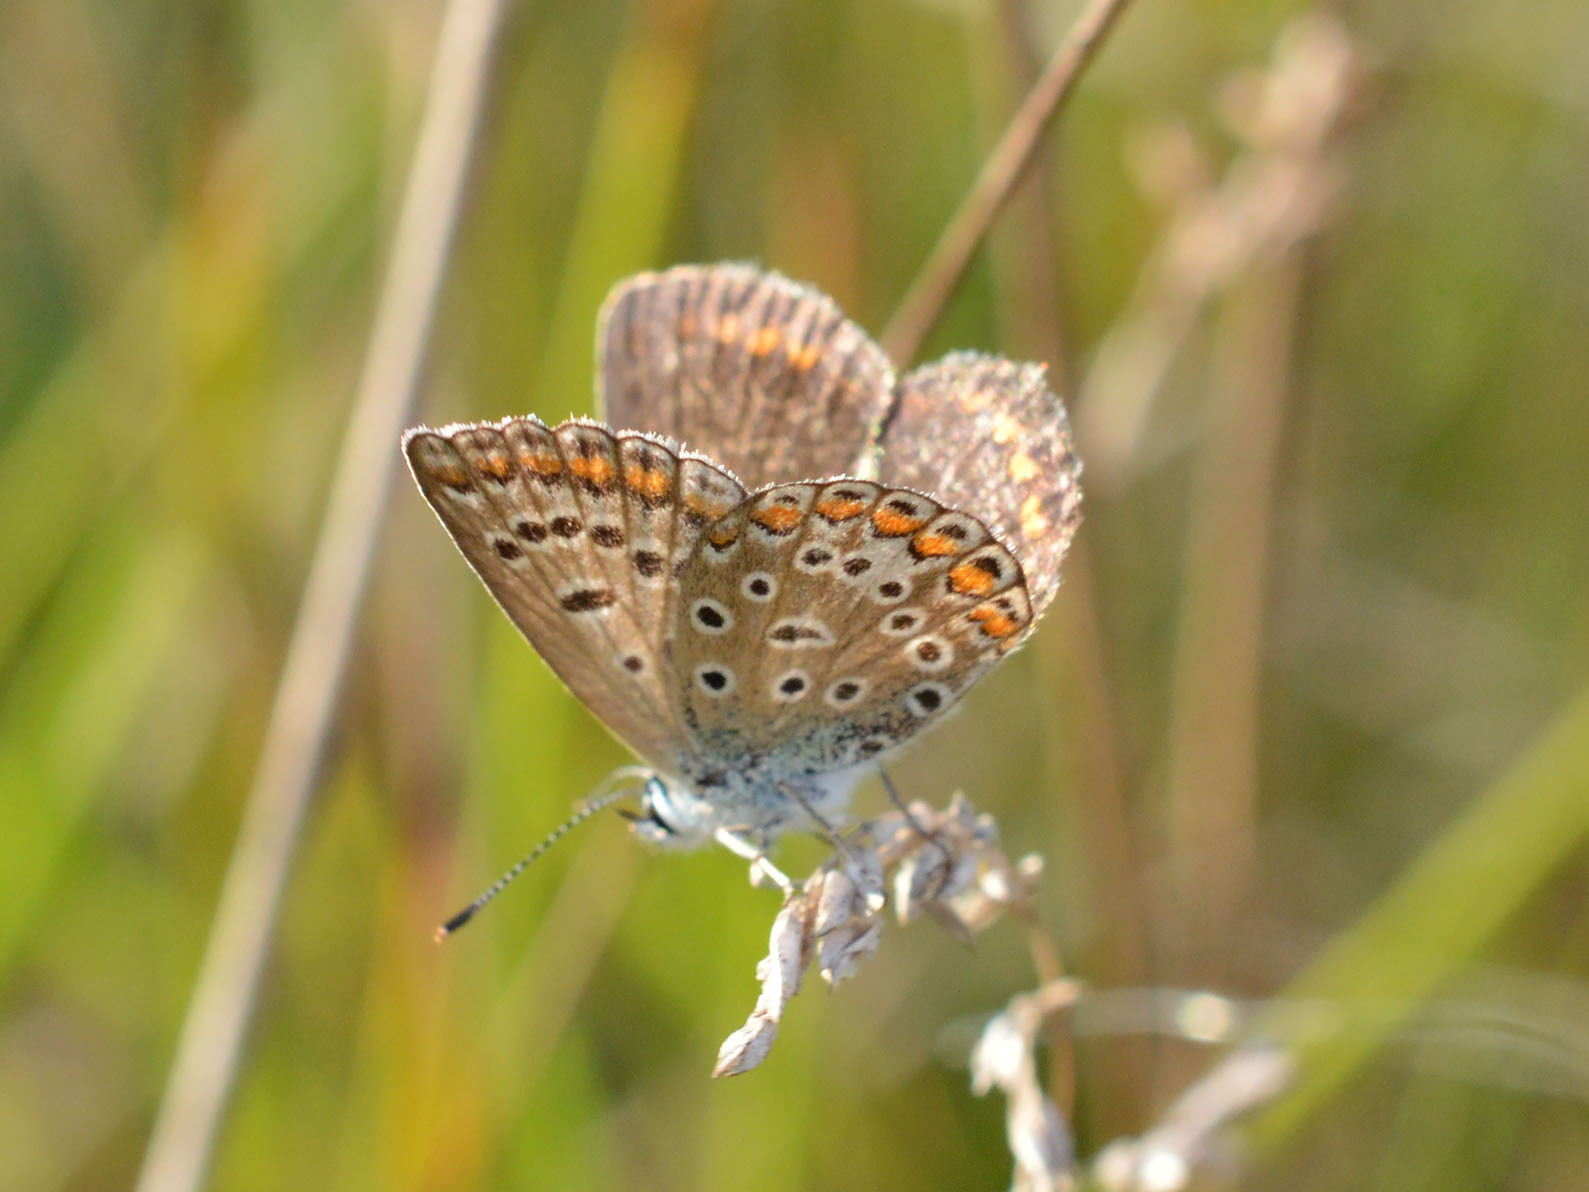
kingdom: Animalia
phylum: Arthropoda
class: Insecta
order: Lepidoptera
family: Lycaenidae
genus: Polyommatus
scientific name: Polyommatus icarus
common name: Common blue
